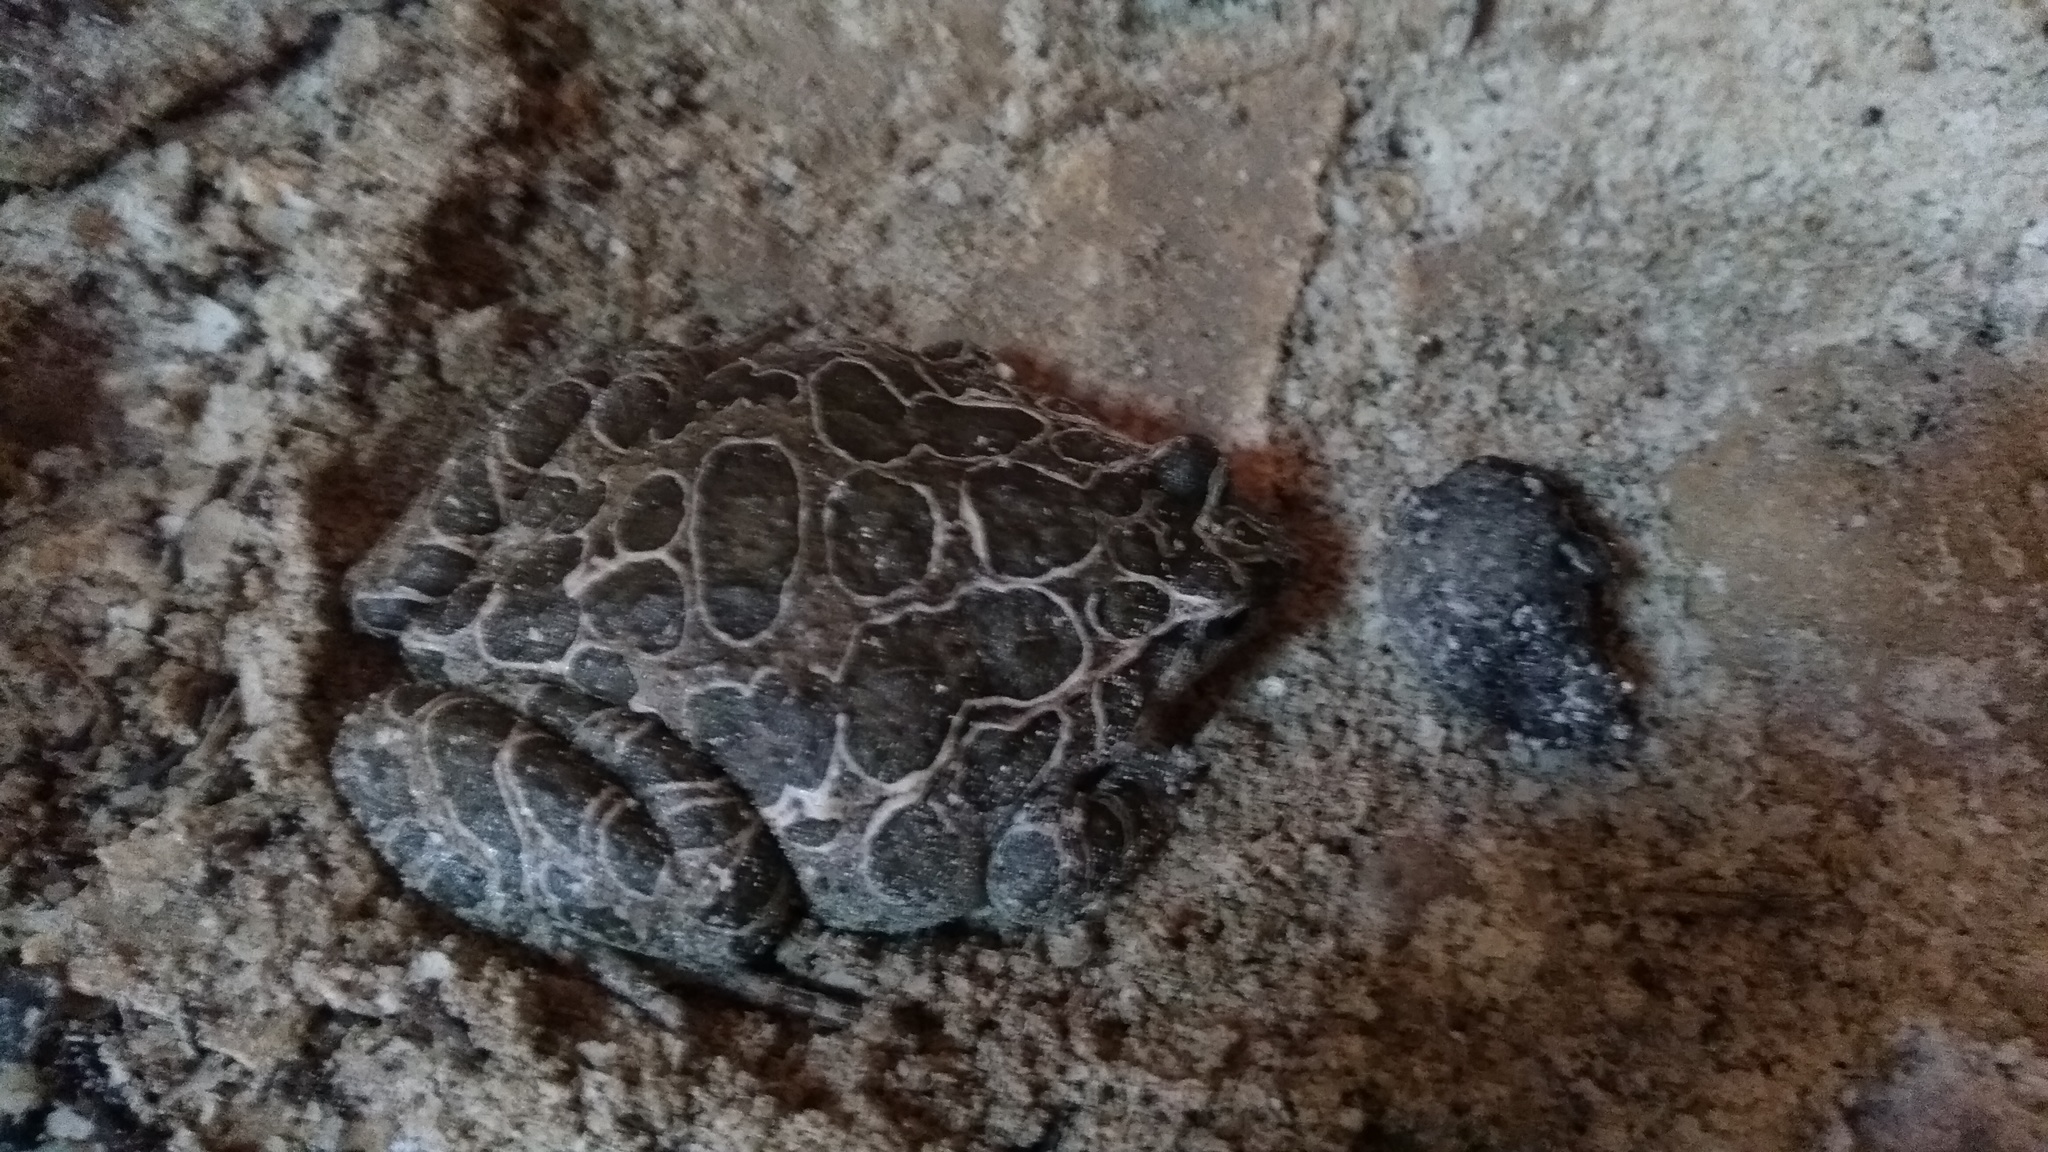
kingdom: Animalia
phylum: Chordata
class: Amphibia
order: Anura
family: Alytidae
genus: Discoglossus
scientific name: Discoglossus pictus
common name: Painted frog
